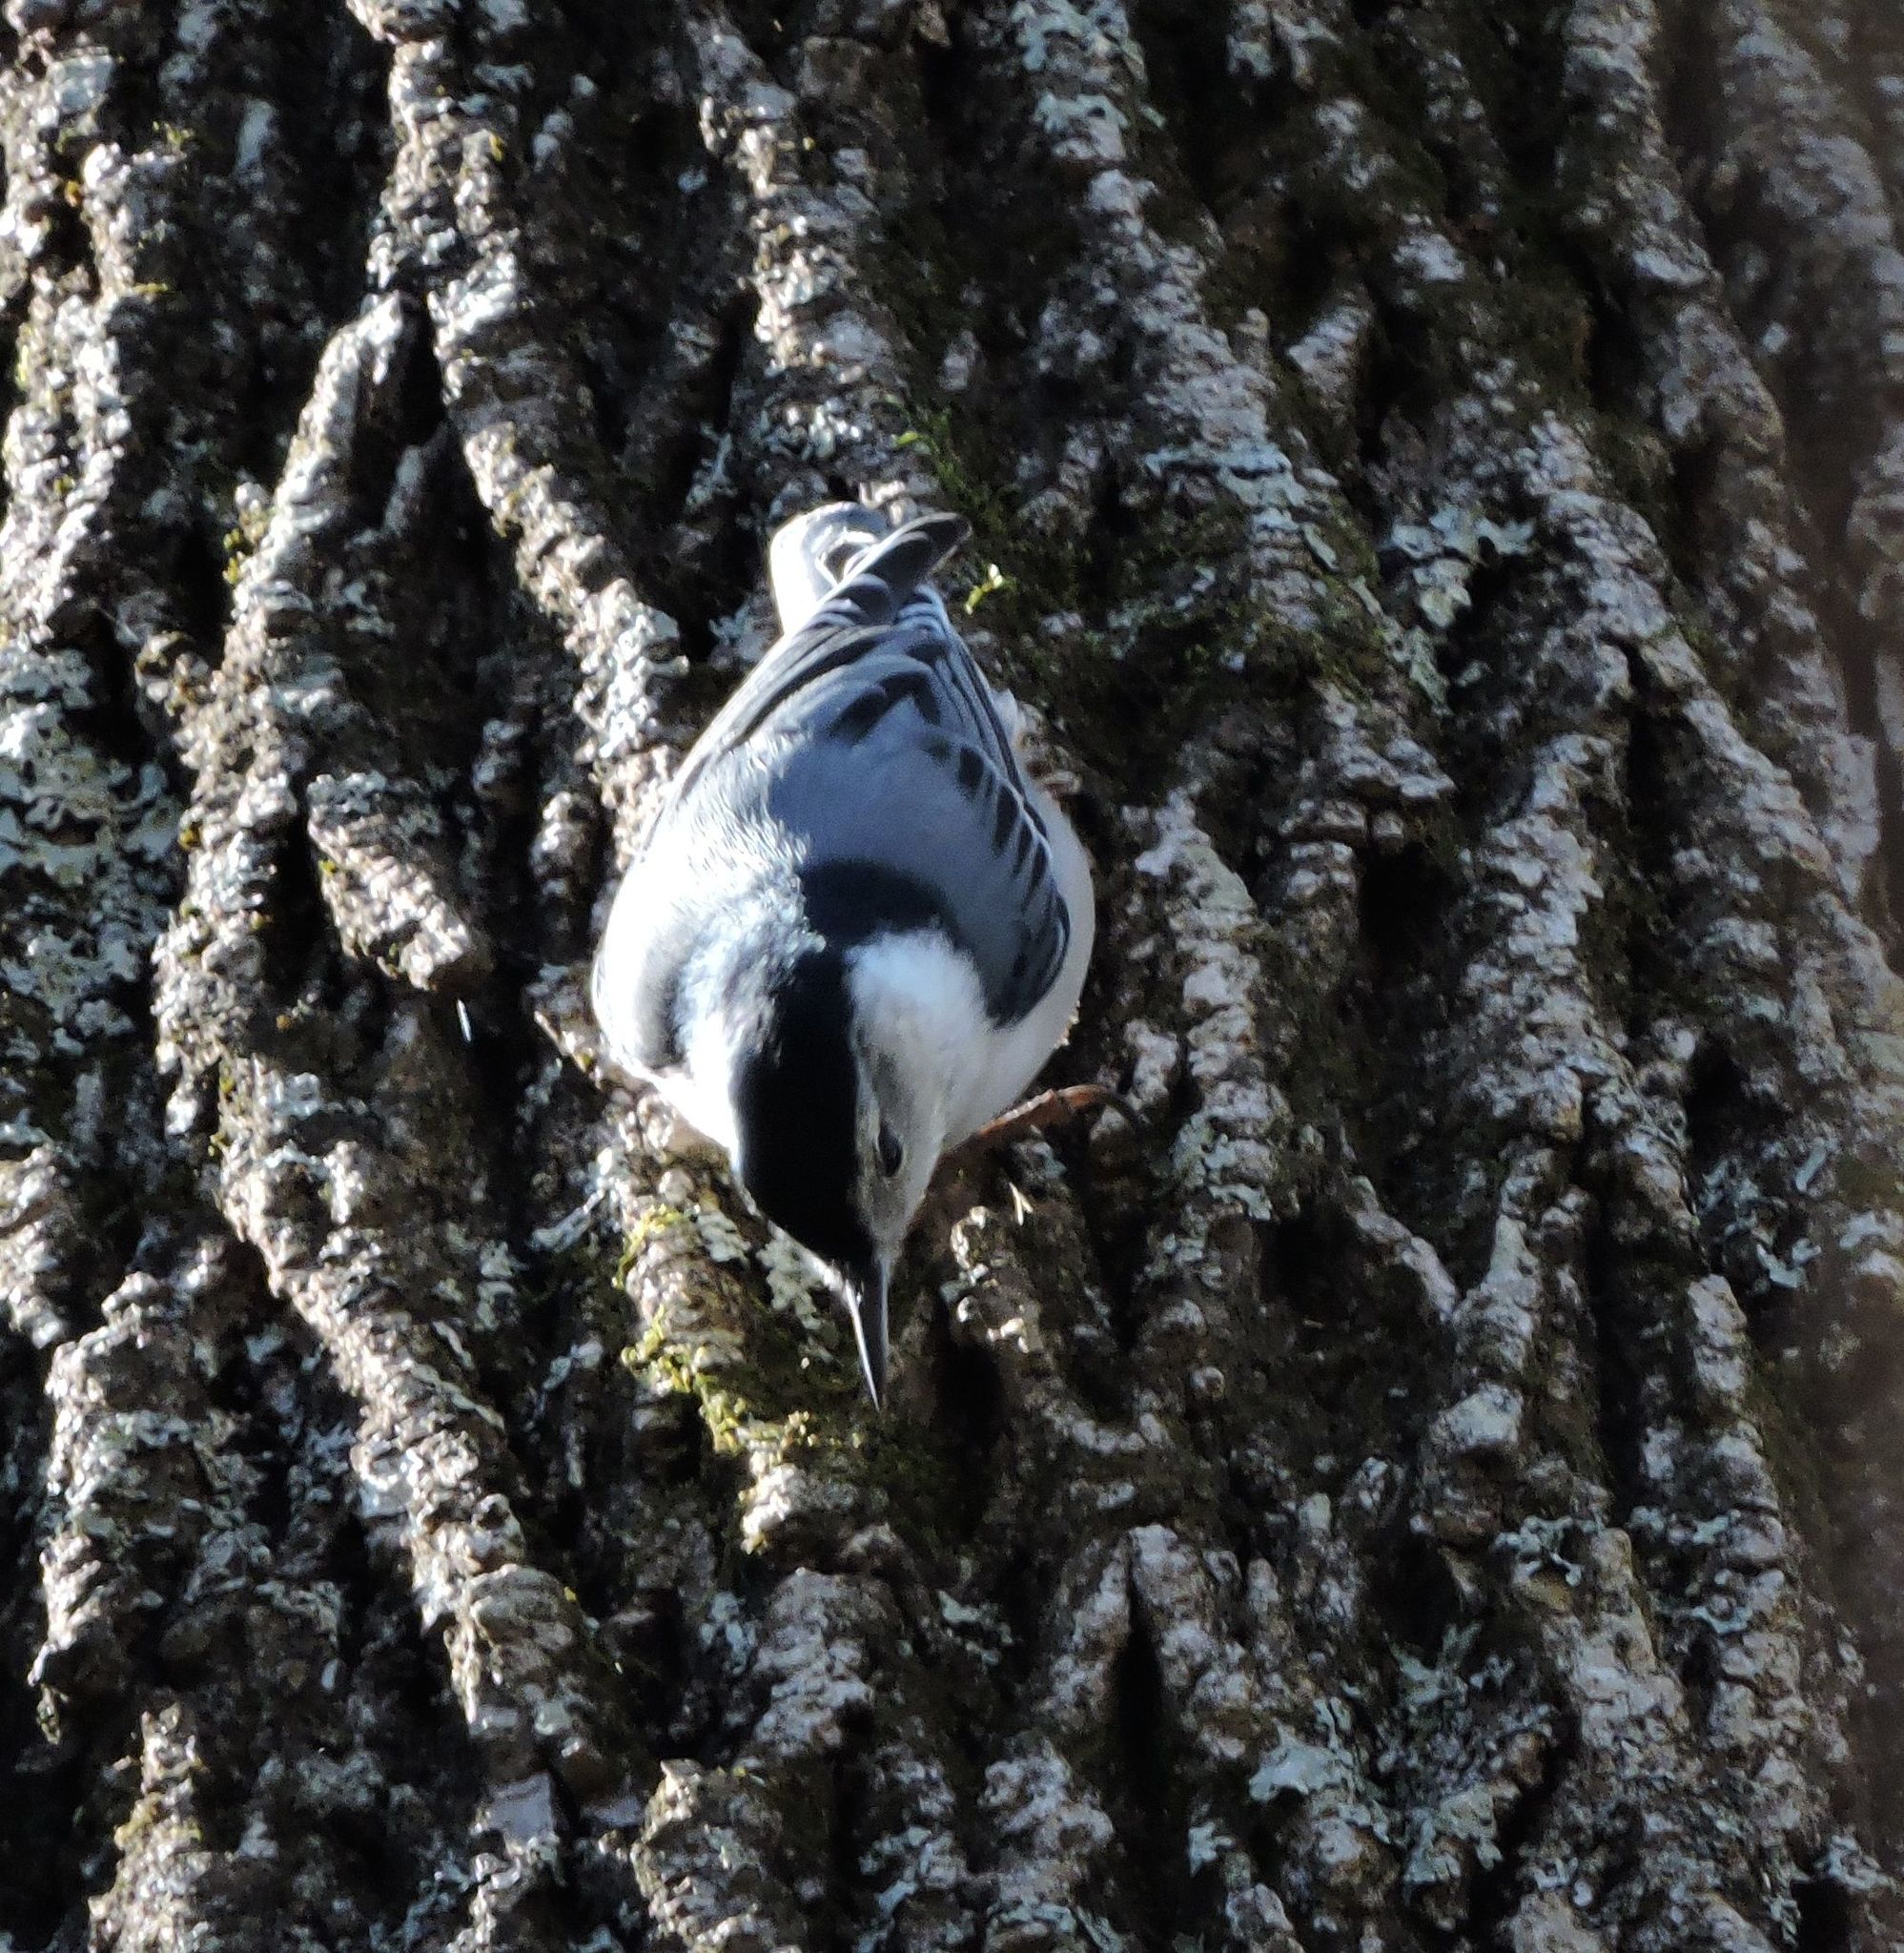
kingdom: Animalia
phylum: Chordata
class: Aves
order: Passeriformes
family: Sittidae
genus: Sitta
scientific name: Sitta carolinensis
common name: White-breasted nuthatch
